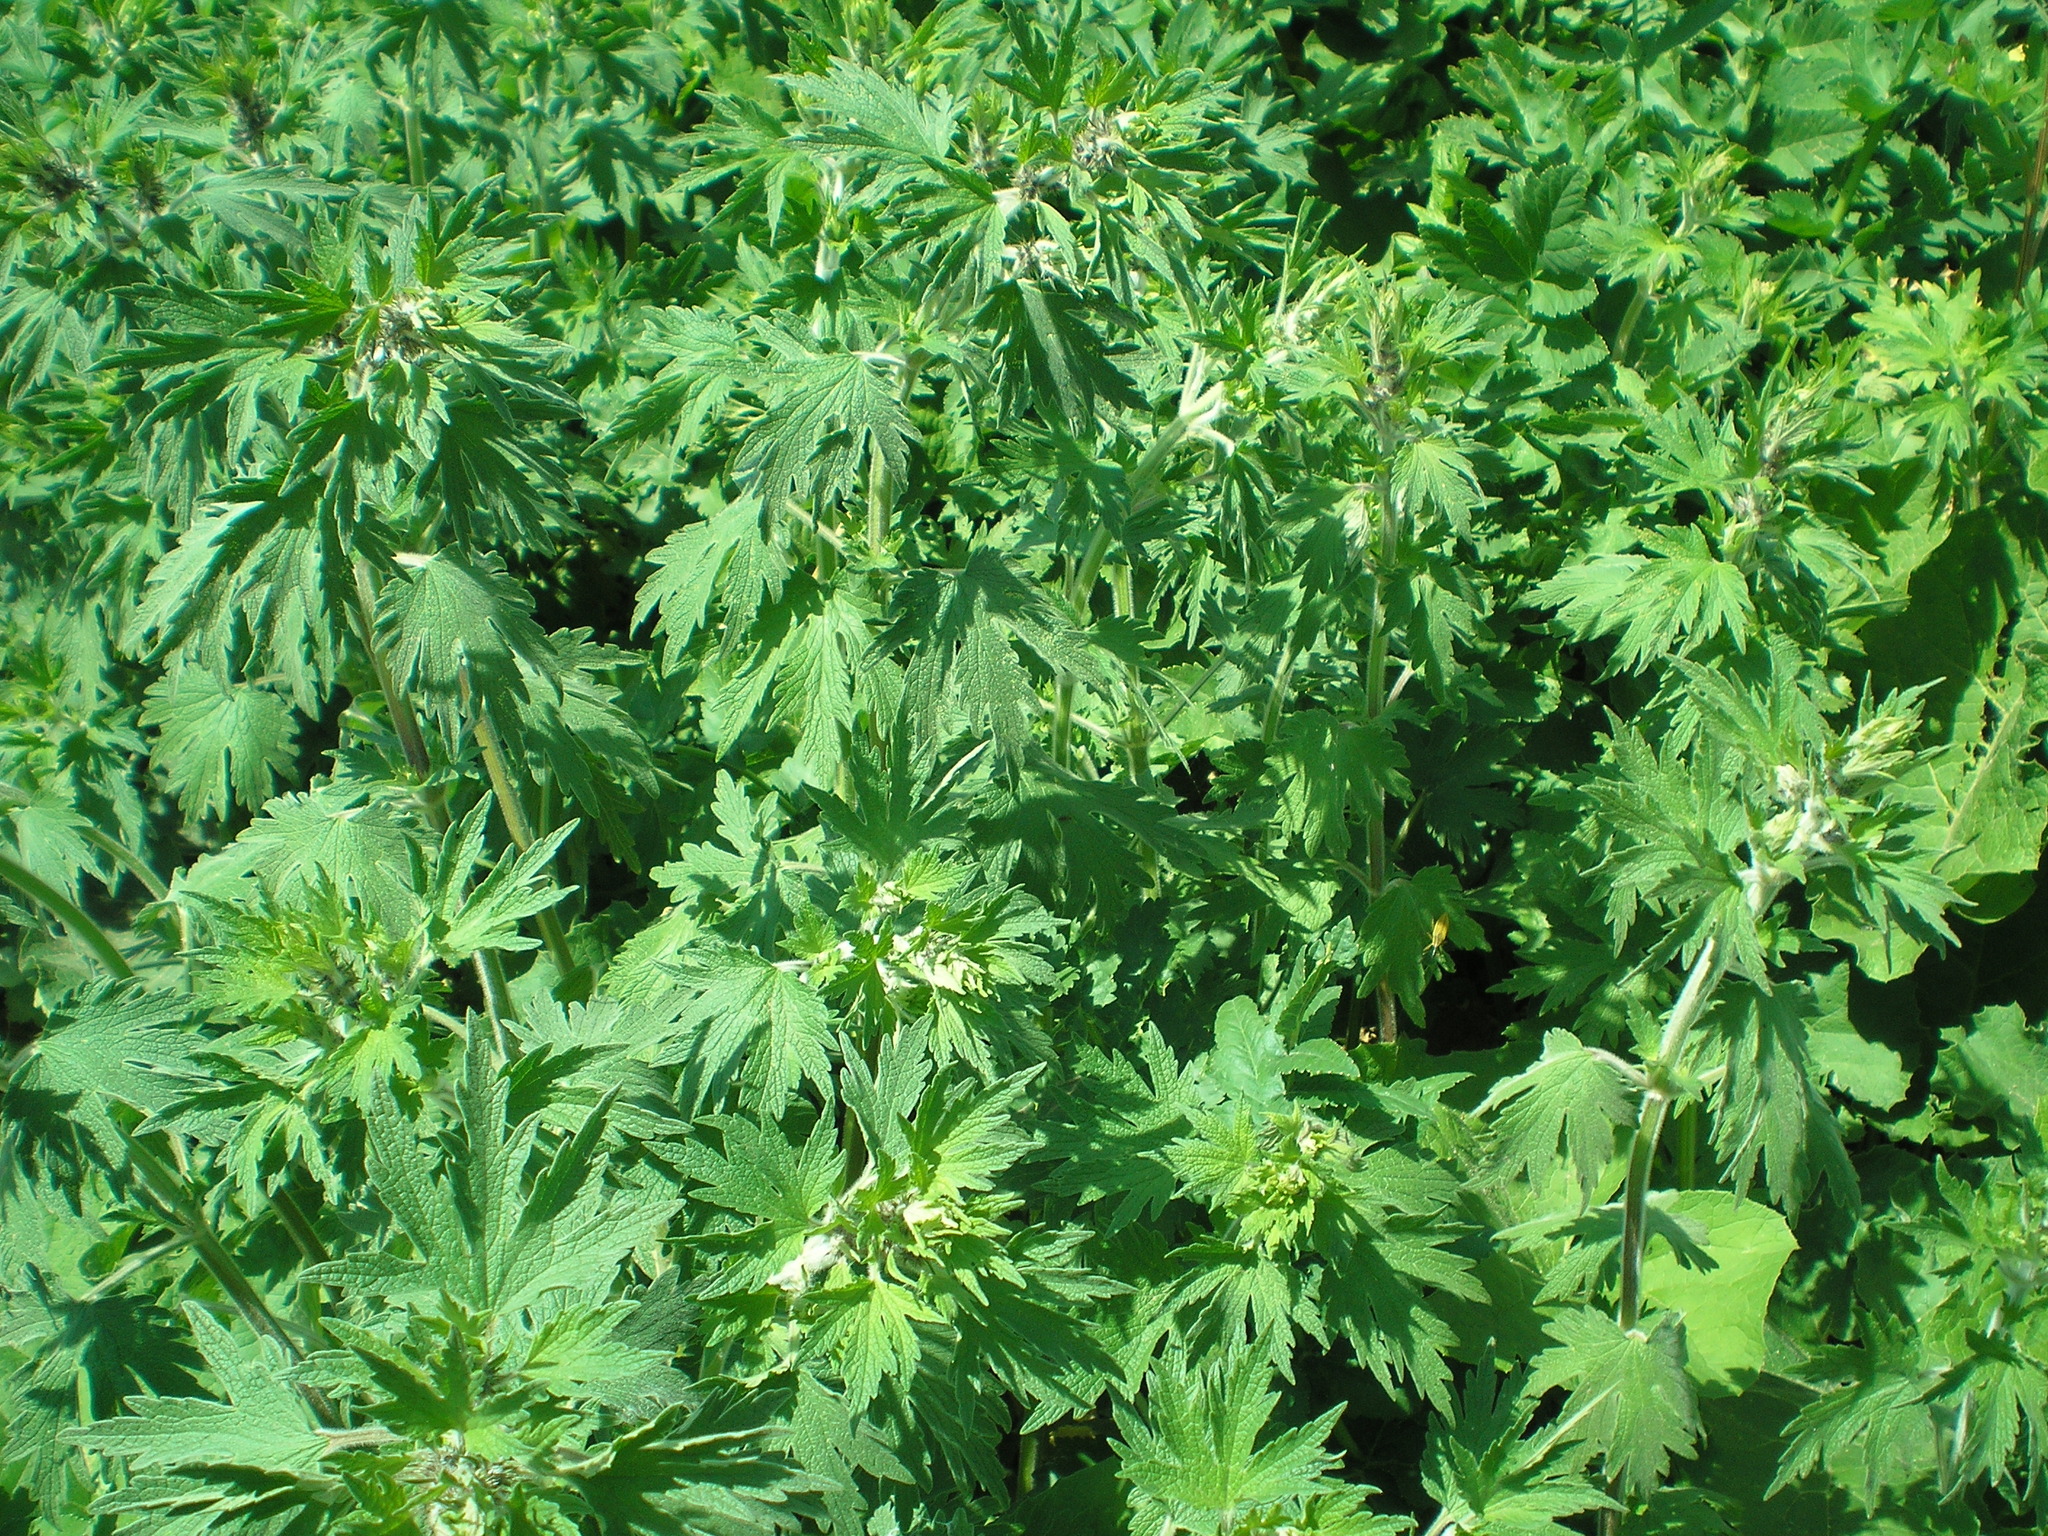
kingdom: Plantae
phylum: Tracheophyta
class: Magnoliopsida
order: Lamiales
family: Lamiaceae
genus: Leonurus
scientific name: Leonurus quinquelobatus
